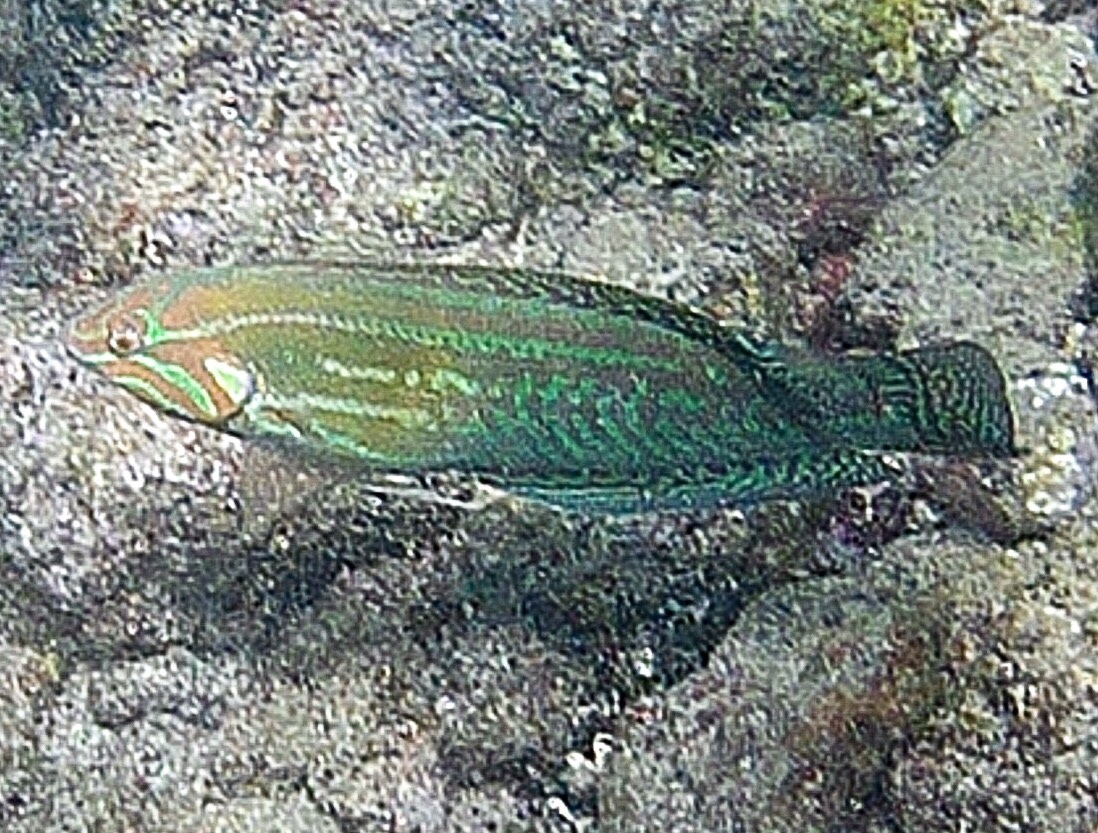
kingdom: Animalia
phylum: Chordata
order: Perciformes
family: Labridae
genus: Coris
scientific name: Coris venusta
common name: Elegant coris
